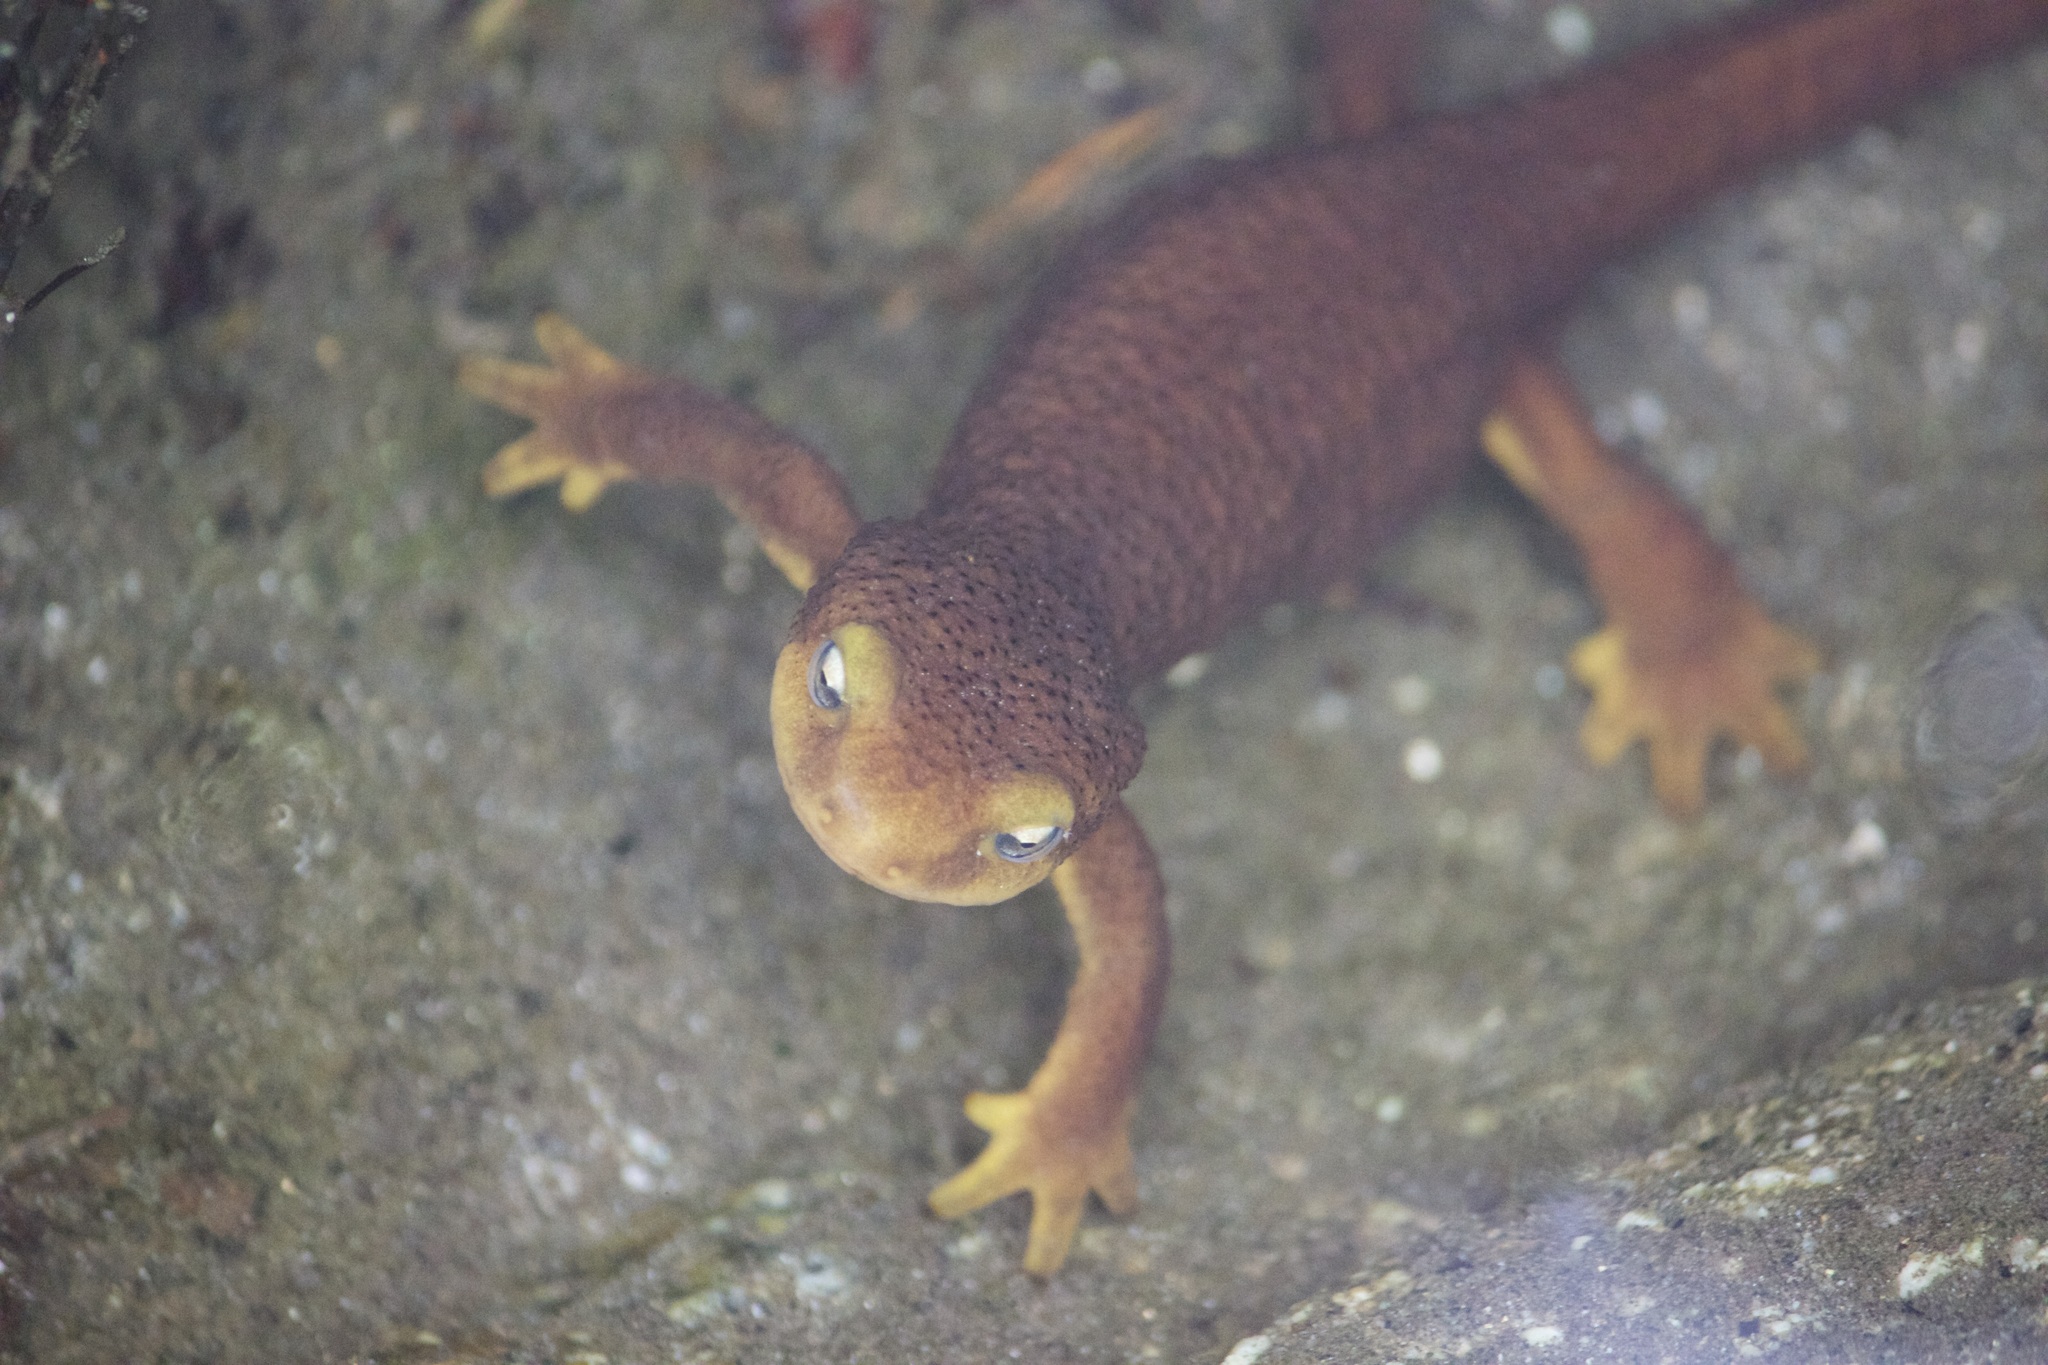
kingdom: Animalia
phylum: Chordata
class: Amphibia
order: Caudata
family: Salamandridae
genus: Taricha
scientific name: Taricha torosa
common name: California newt
